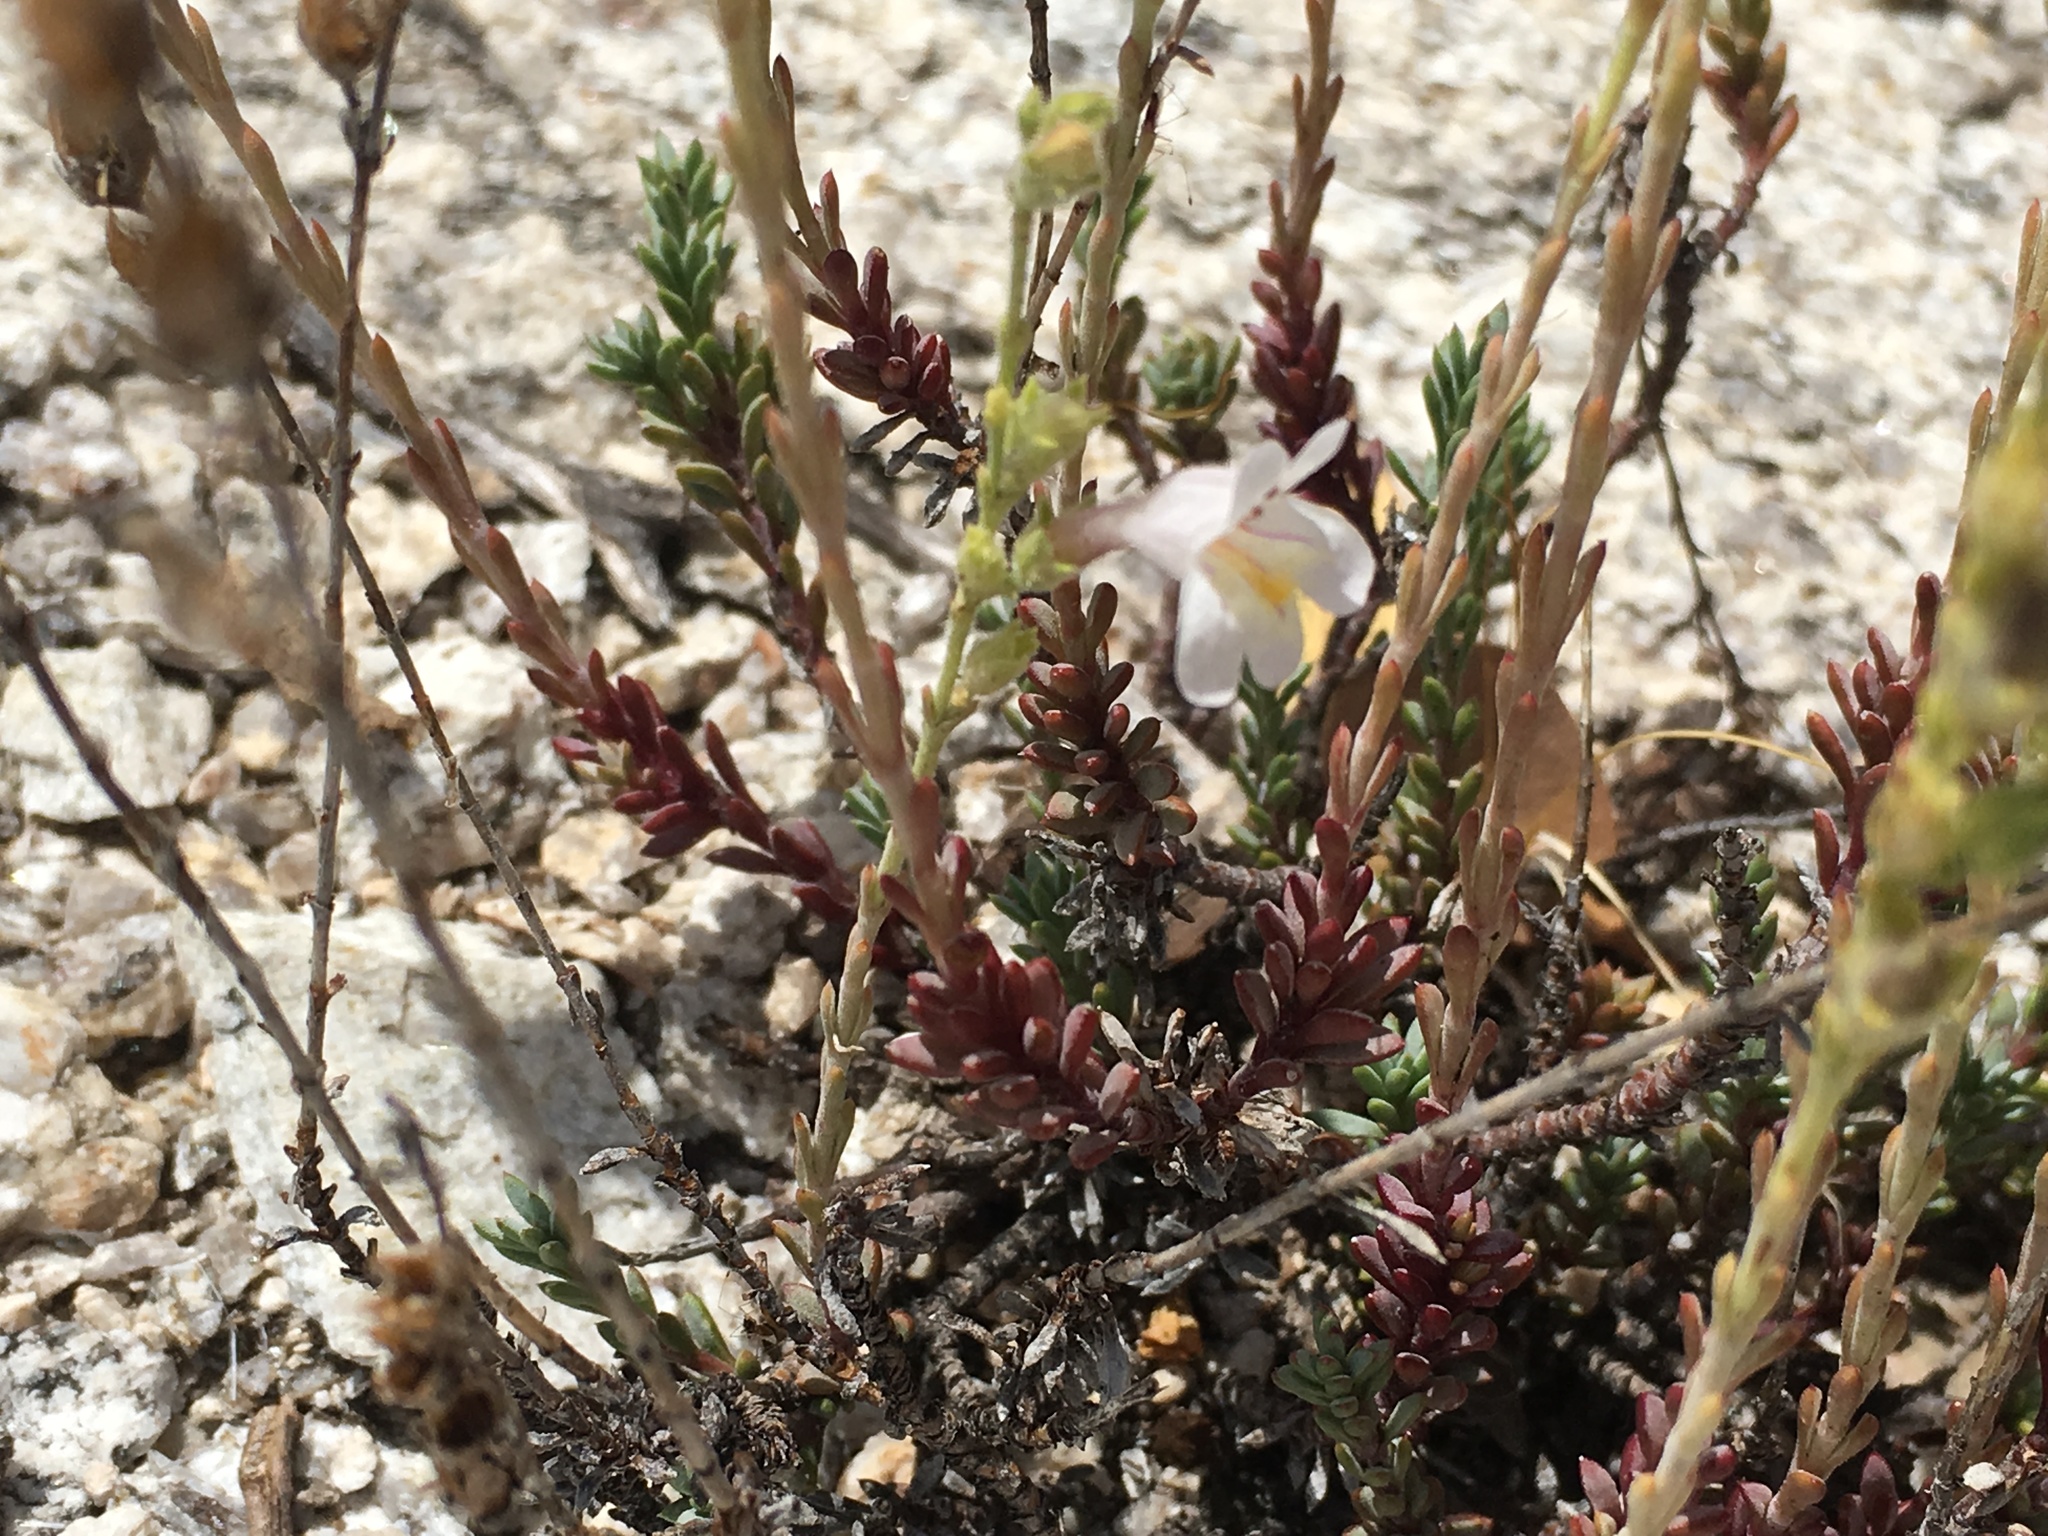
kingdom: Plantae
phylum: Tracheophyta
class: Magnoliopsida
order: Lamiales
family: Plantaginaceae
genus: Penstemon
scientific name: Penstemon discolor
